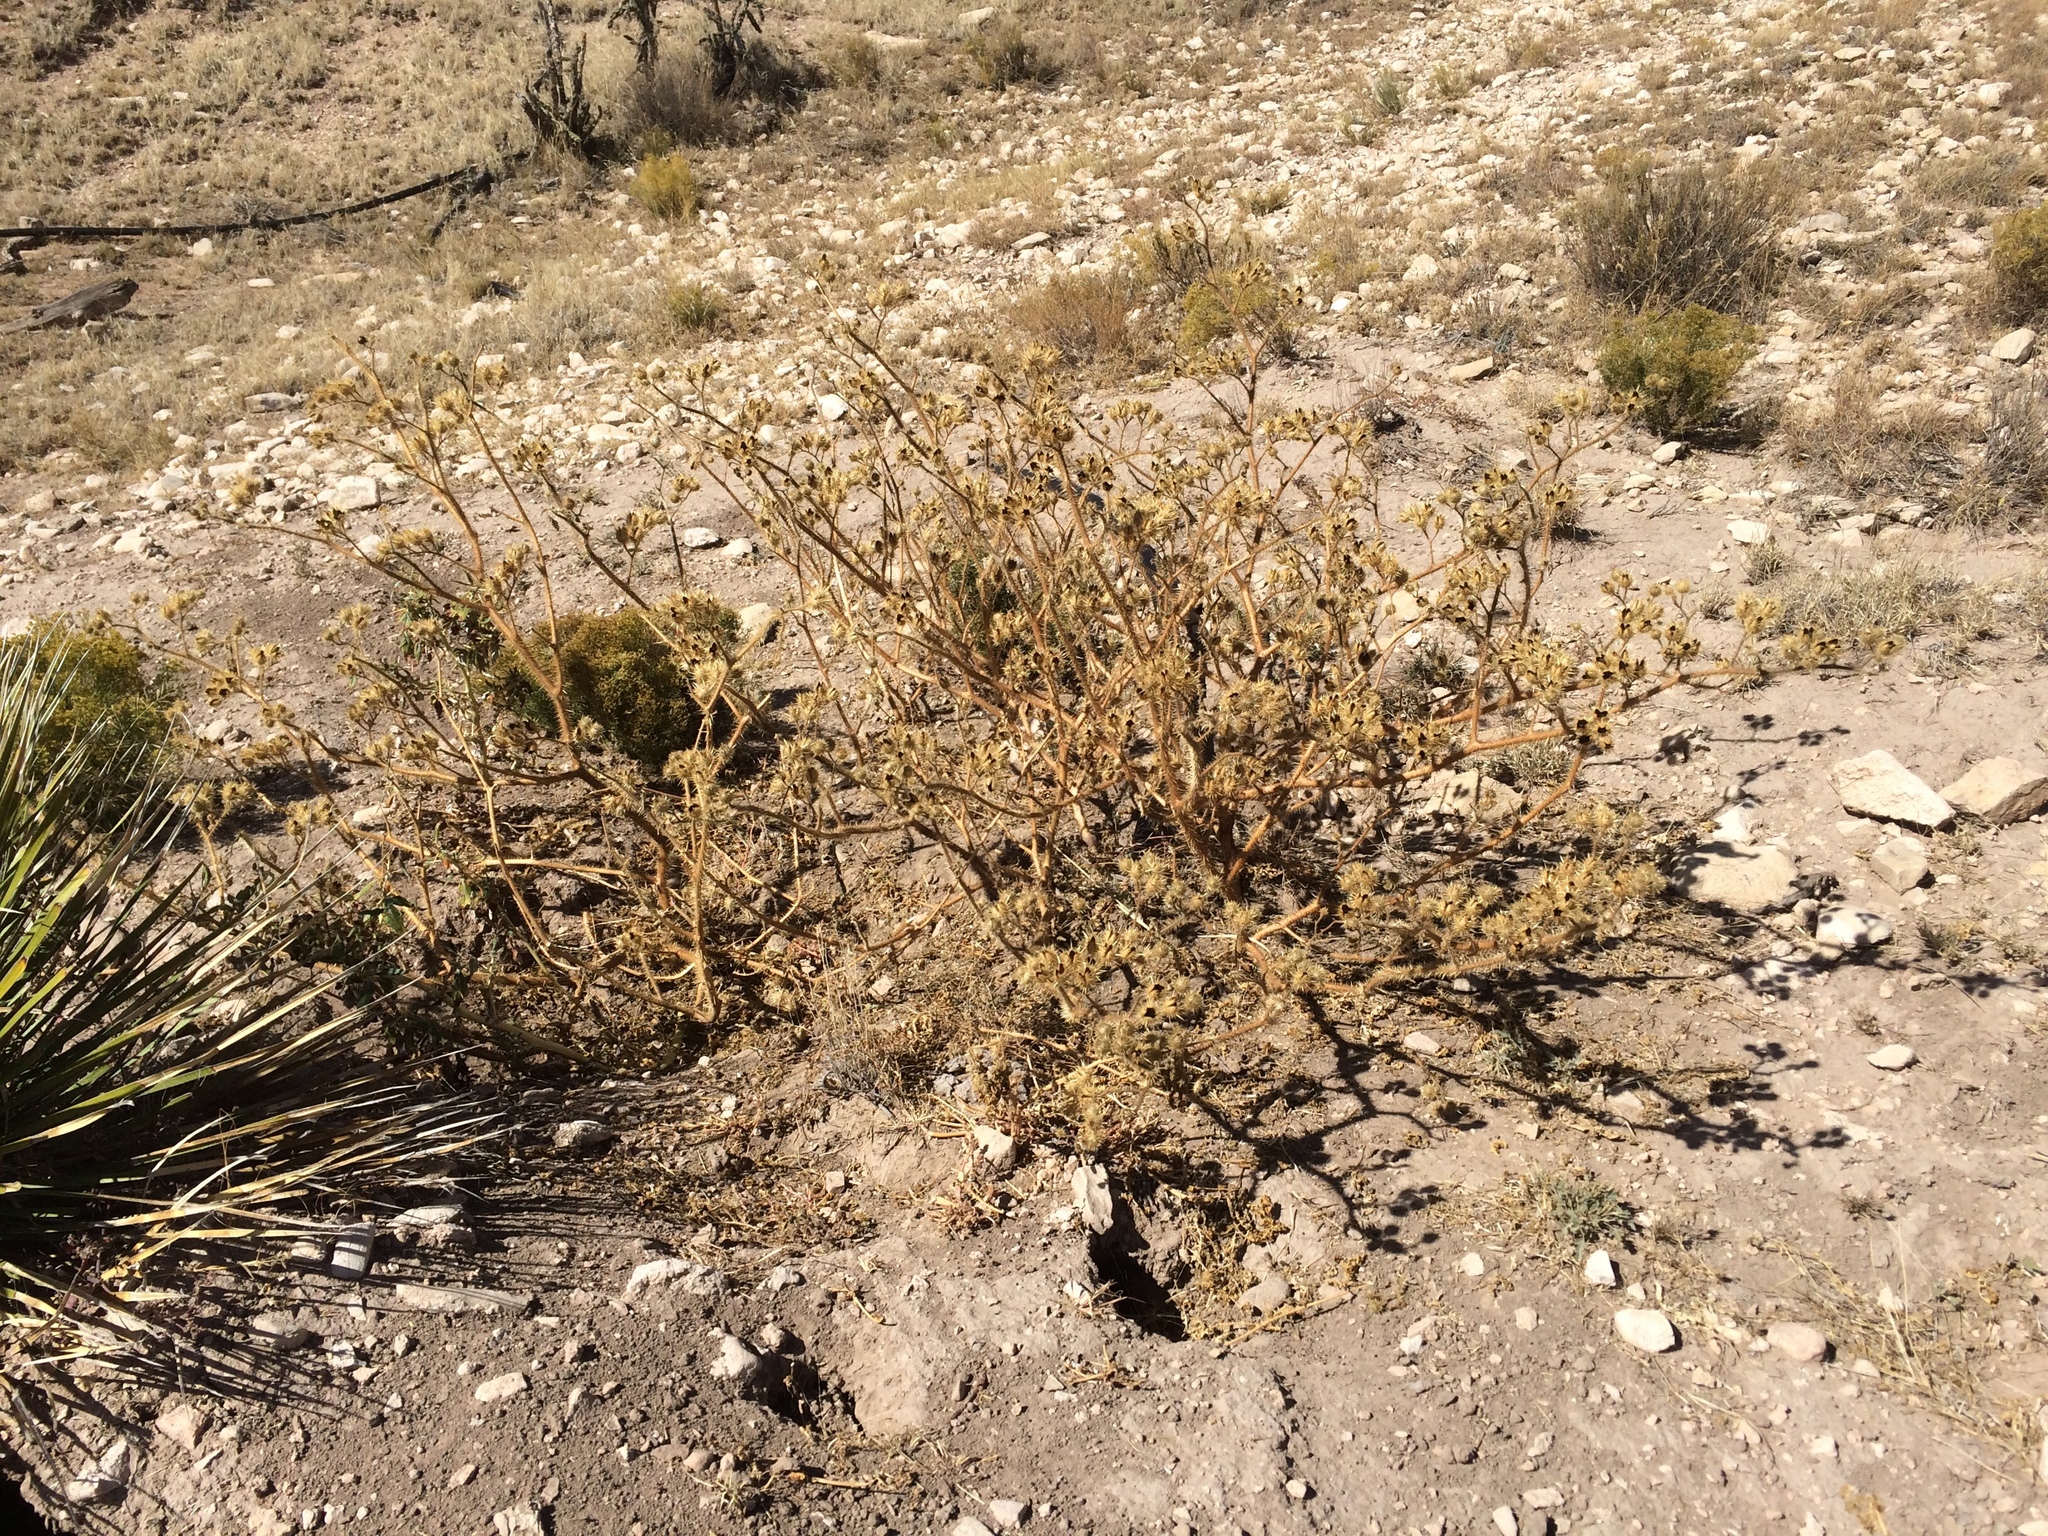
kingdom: Plantae
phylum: Tracheophyta
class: Magnoliopsida
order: Solanales
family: Solanaceae
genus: Solanum
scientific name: Solanum angustifolium
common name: Buffalobur nightshade
